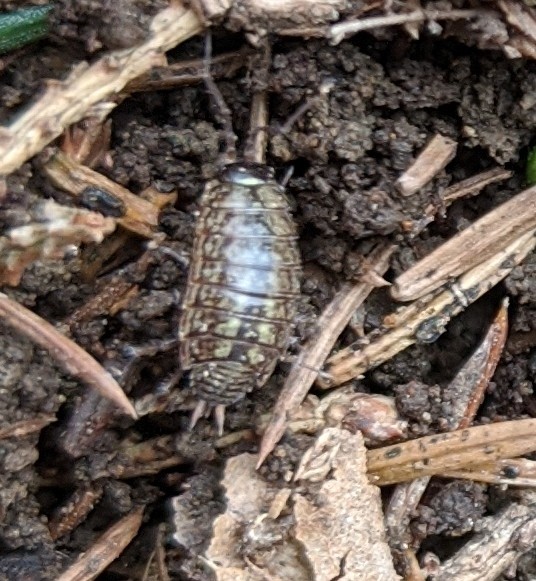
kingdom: Animalia
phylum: Arthropoda
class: Malacostraca
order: Isopoda
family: Armadillidiidae
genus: Armadillidium
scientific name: Armadillidium vulgare
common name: Common pill woodlouse
